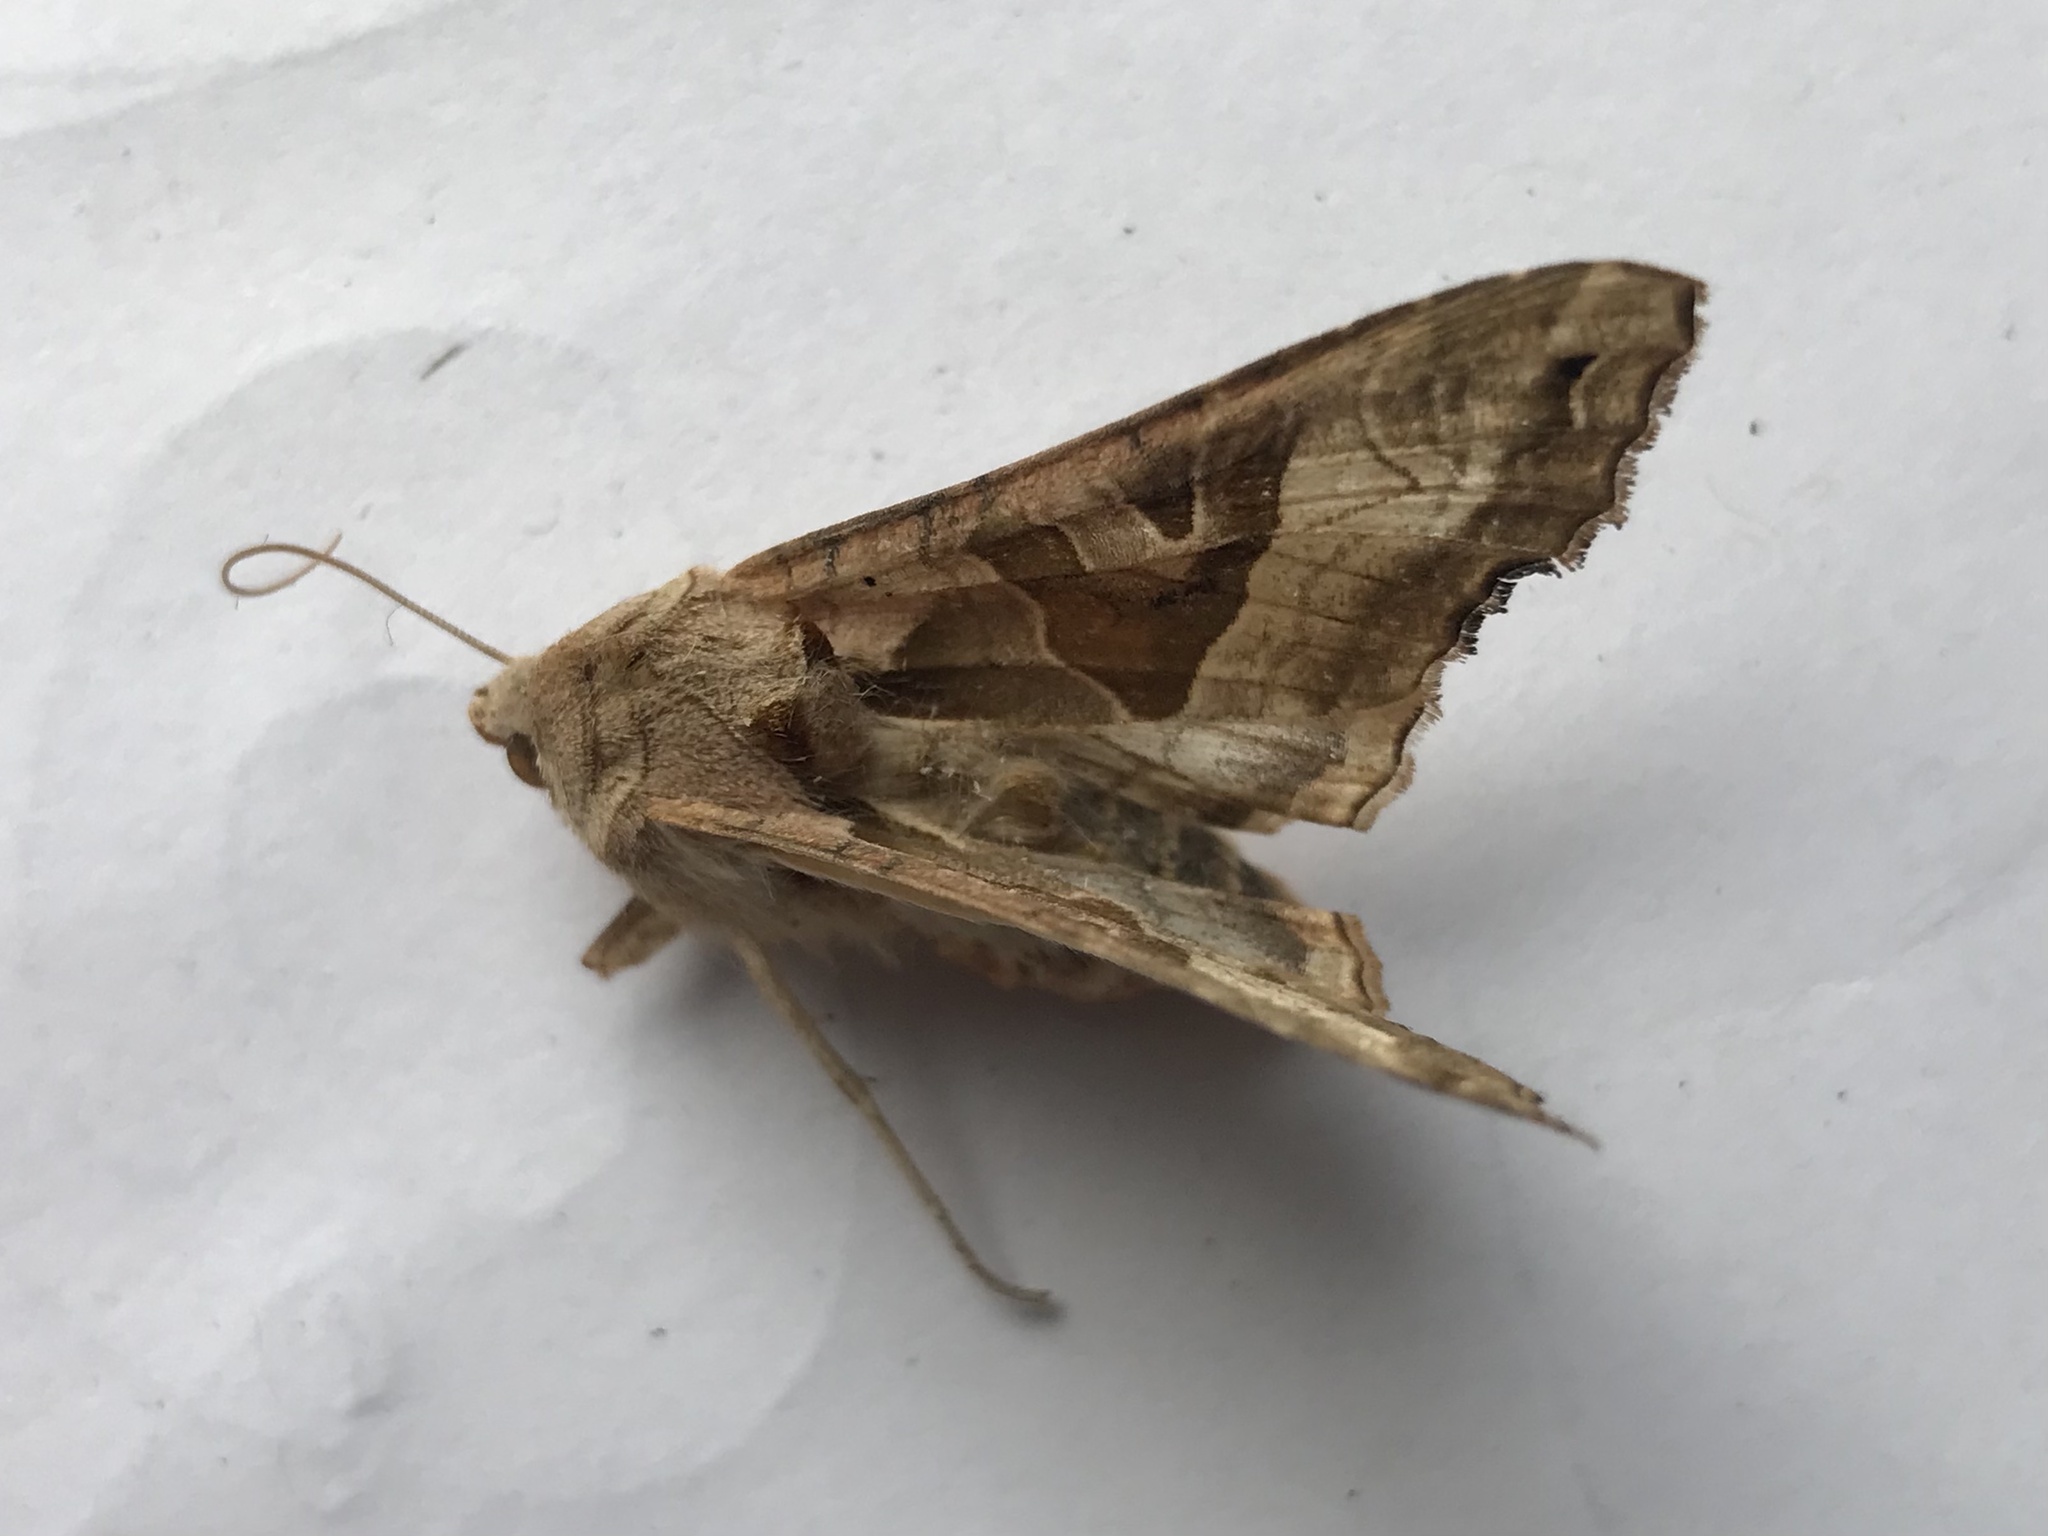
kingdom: Animalia
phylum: Arthropoda
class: Insecta
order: Lepidoptera
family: Noctuidae
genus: Phlogophora
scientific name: Phlogophora meticulosa
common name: Angle shades
